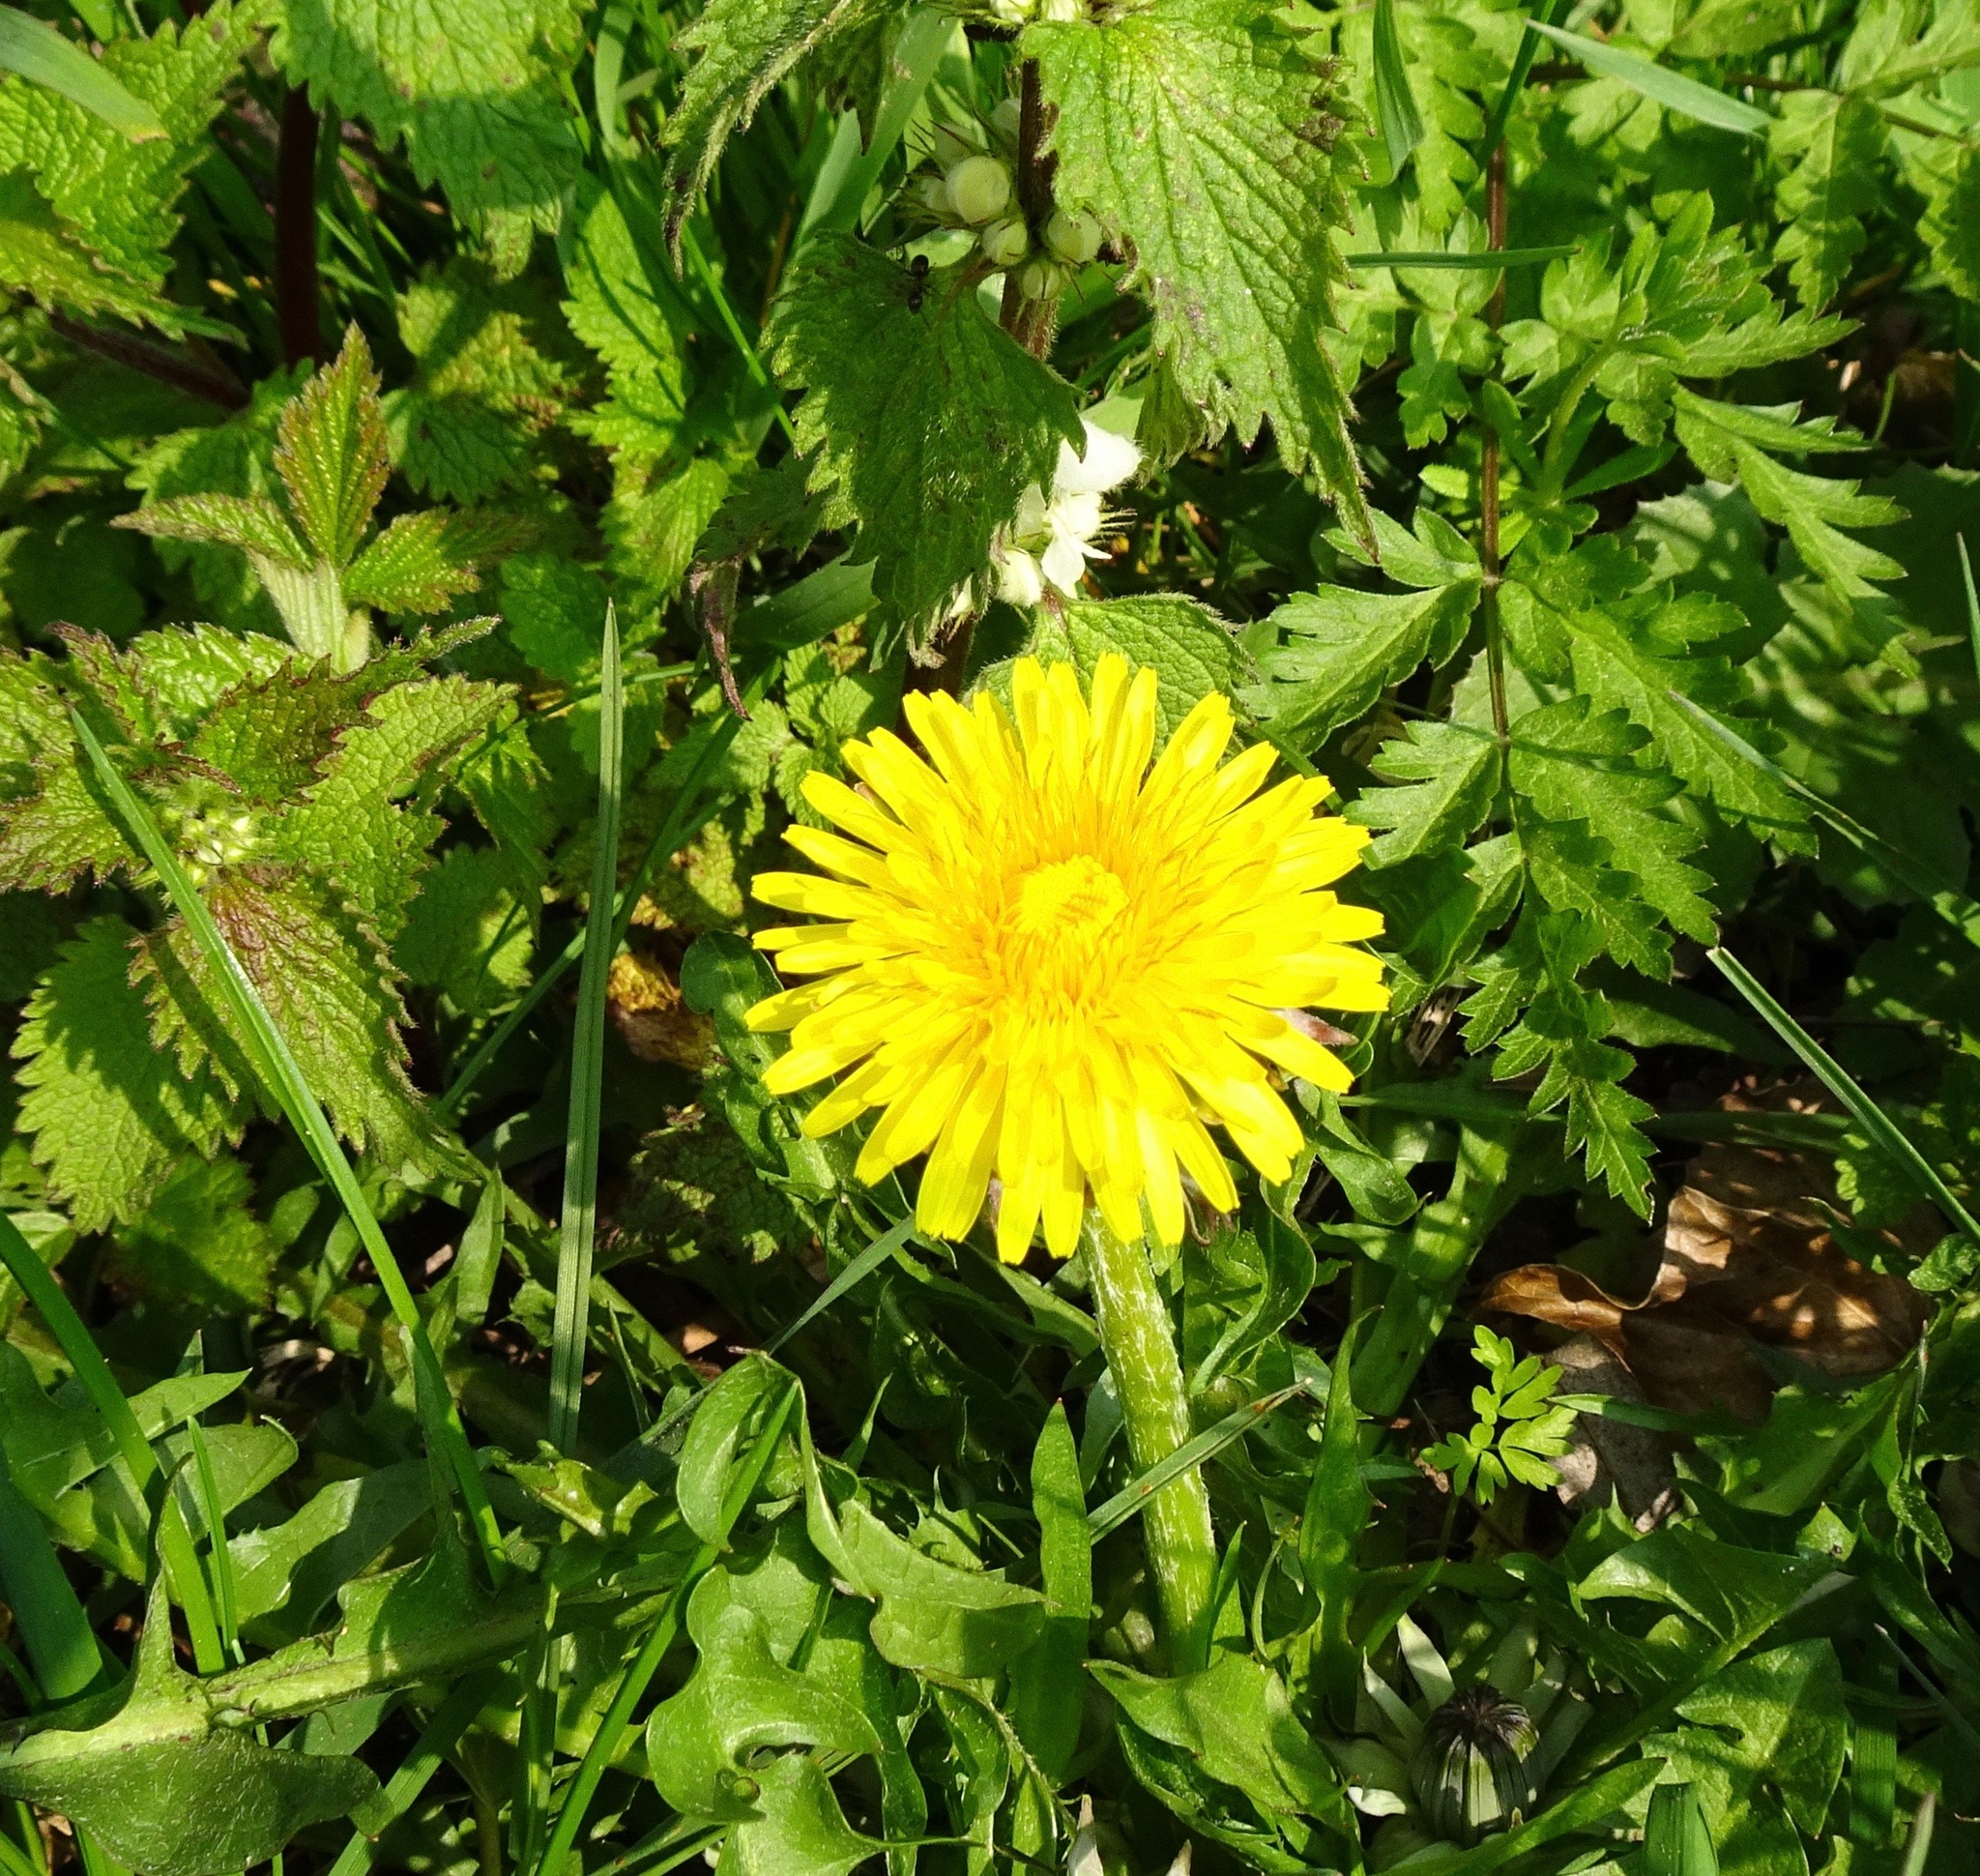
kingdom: Plantae
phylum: Tracheophyta
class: Magnoliopsida
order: Asterales
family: Asteraceae
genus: Taraxacum
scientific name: Taraxacum officinale
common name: Common dandelion
